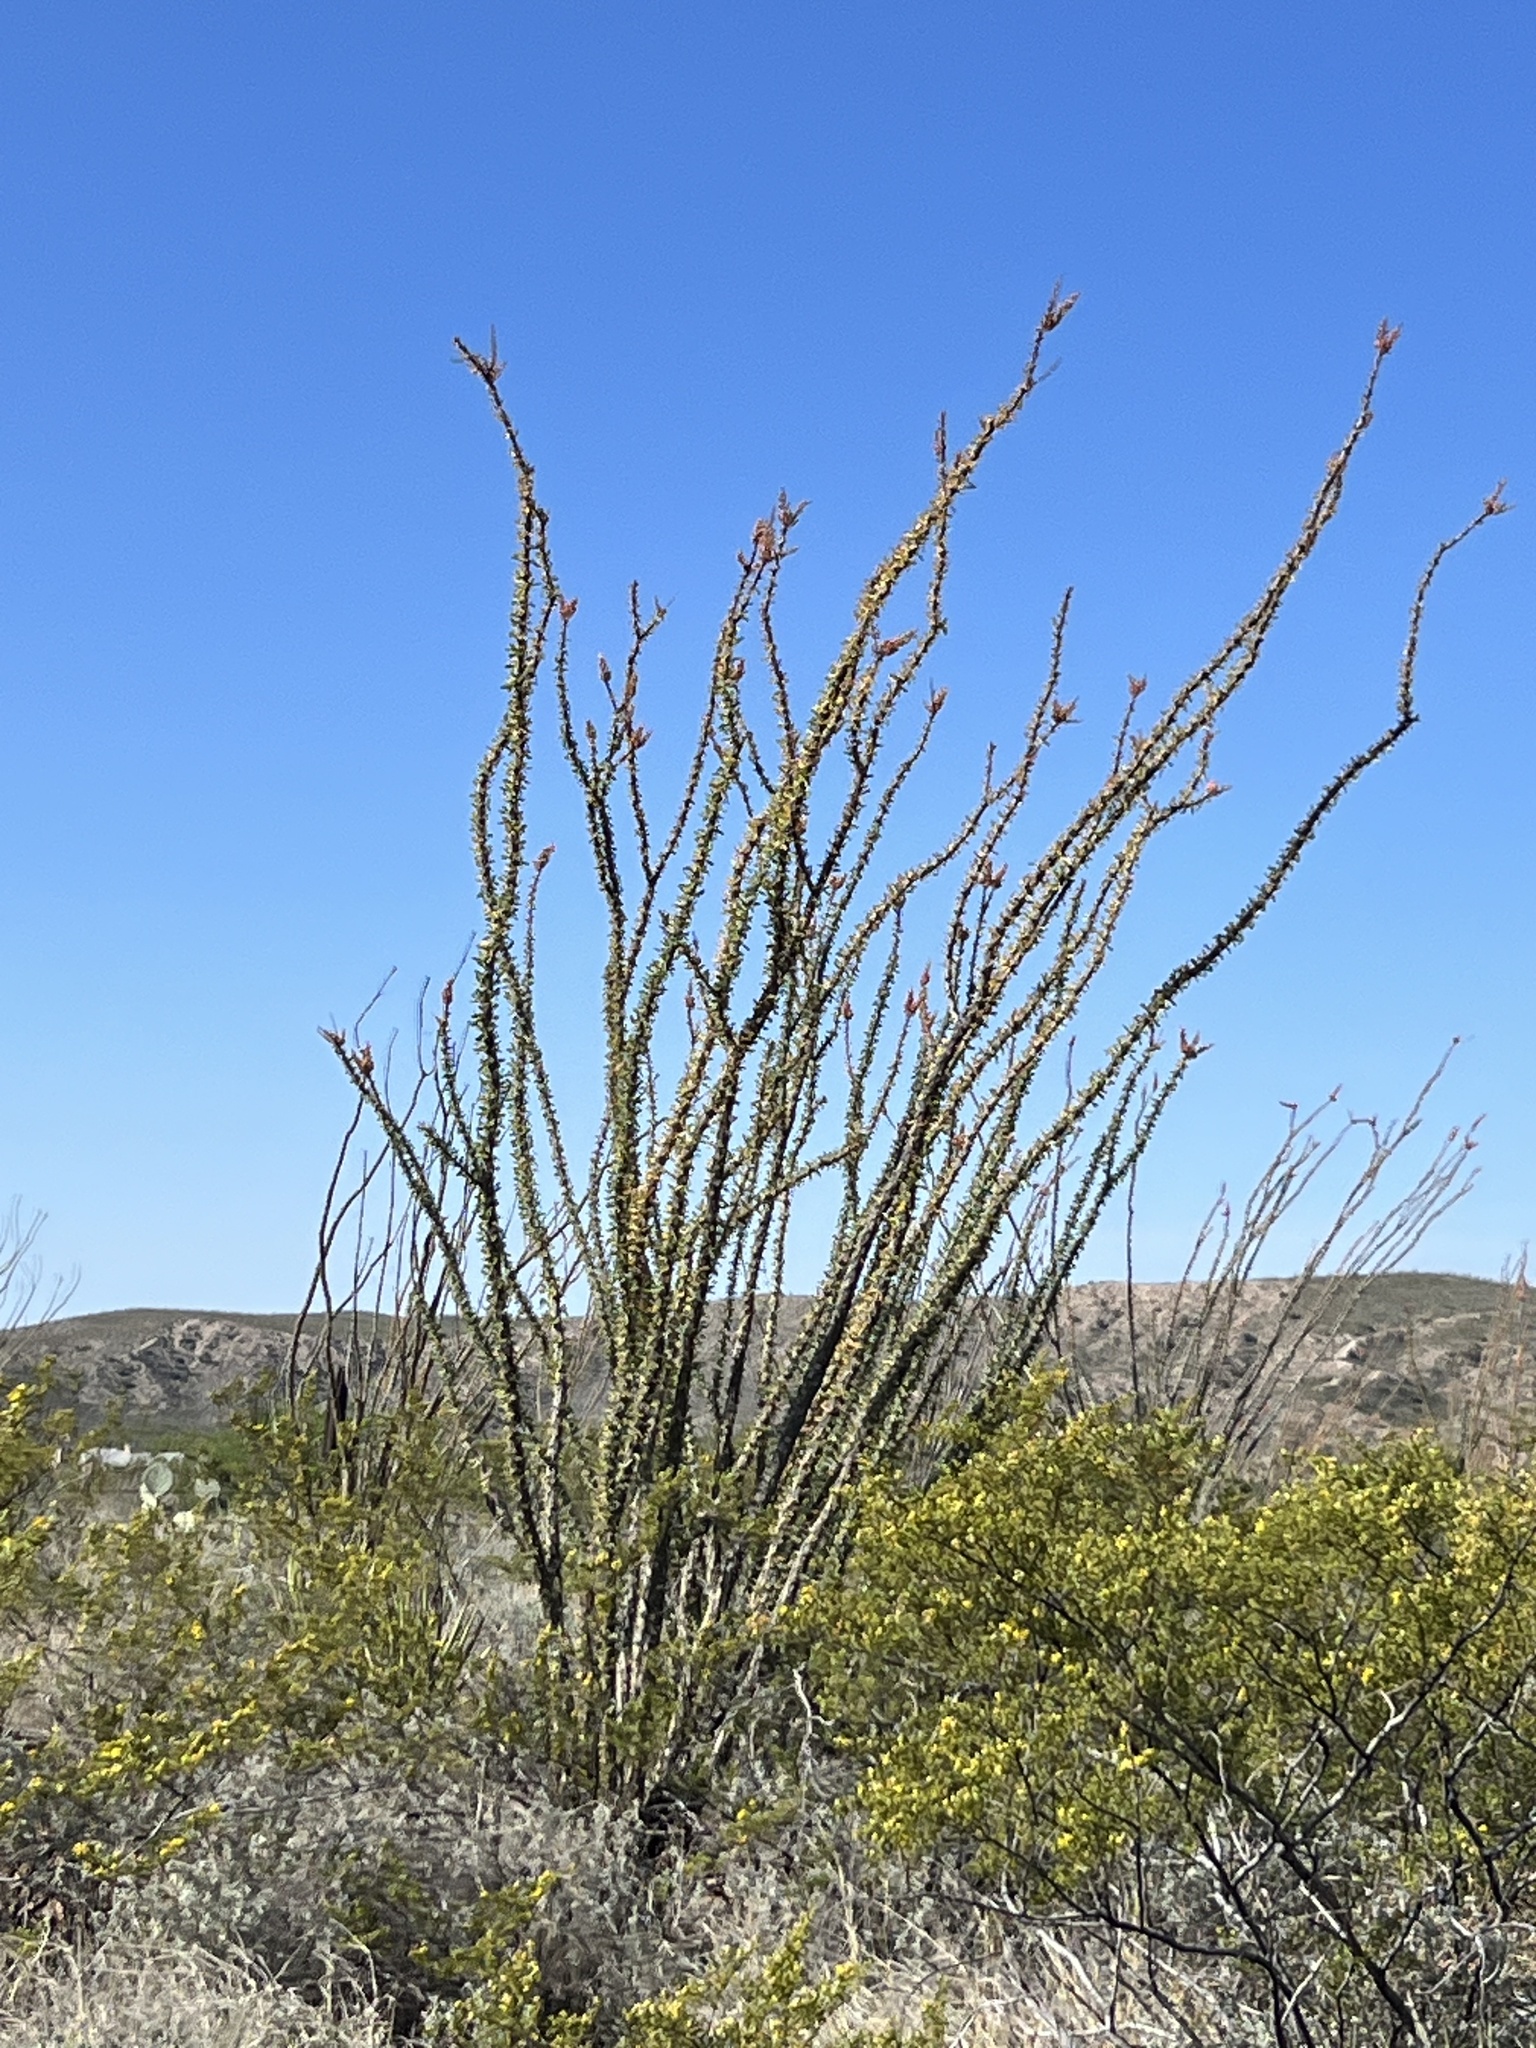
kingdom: Plantae
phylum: Tracheophyta
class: Magnoliopsida
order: Ericales
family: Fouquieriaceae
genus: Fouquieria
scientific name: Fouquieria splendens
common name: Vine-cactus
